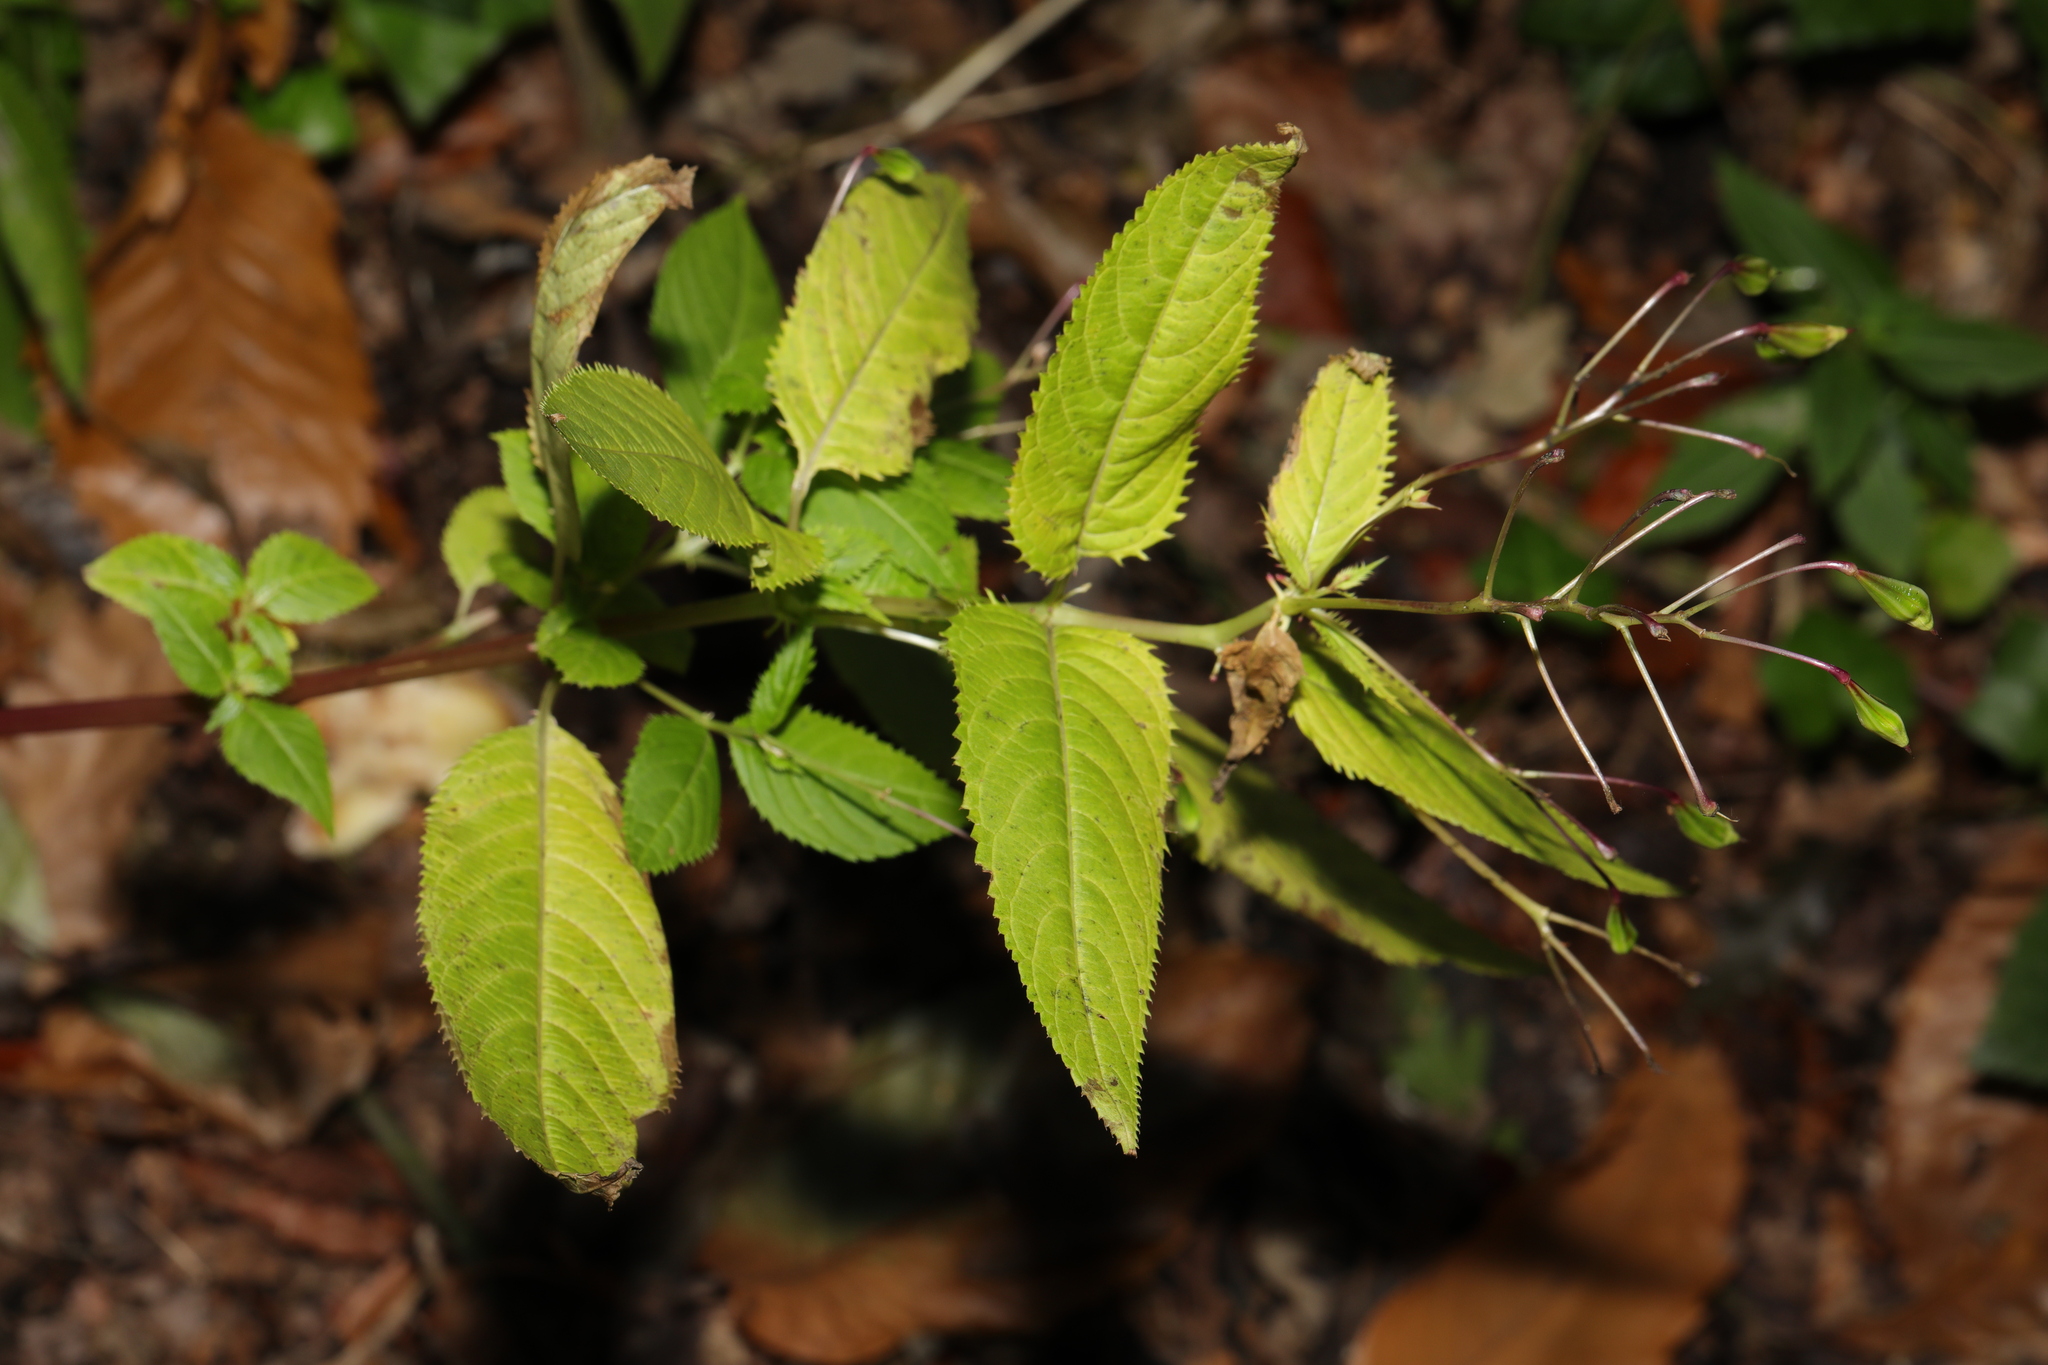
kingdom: Plantae
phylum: Tracheophyta
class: Magnoliopsida
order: Ericales
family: Balsaminaceae
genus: Impatiens
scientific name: Impatiens glandulifera
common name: Himalayan balsam
